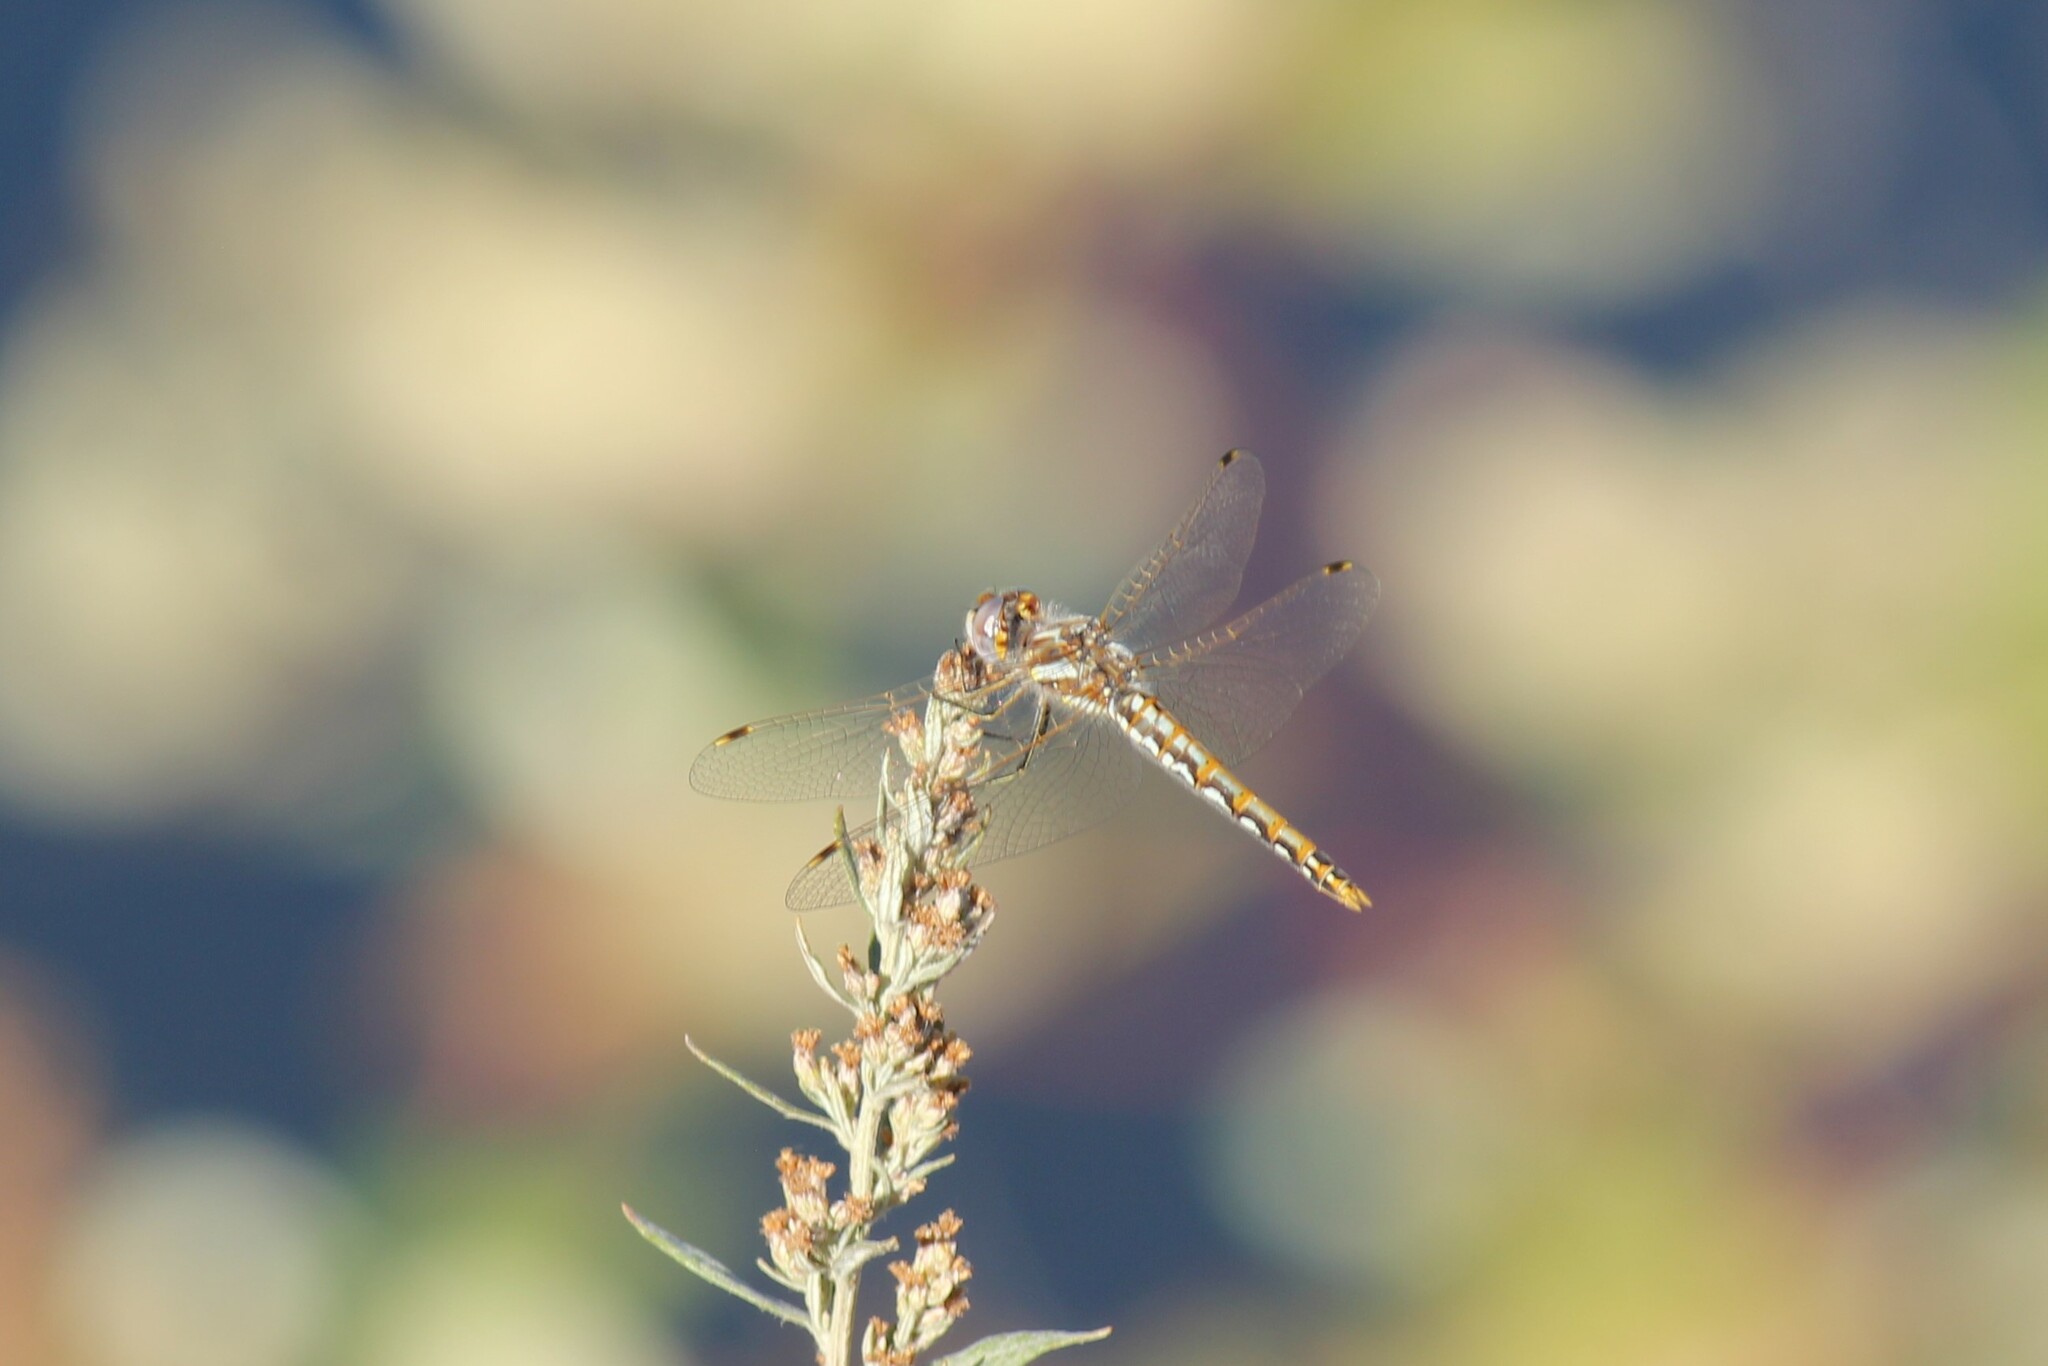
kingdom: Animalia
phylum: Arthropoda
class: Insecta
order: Odonata
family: Libellulidae
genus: Sympetrum
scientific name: Sympetrum corruptum
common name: Variegated meadowhawk
